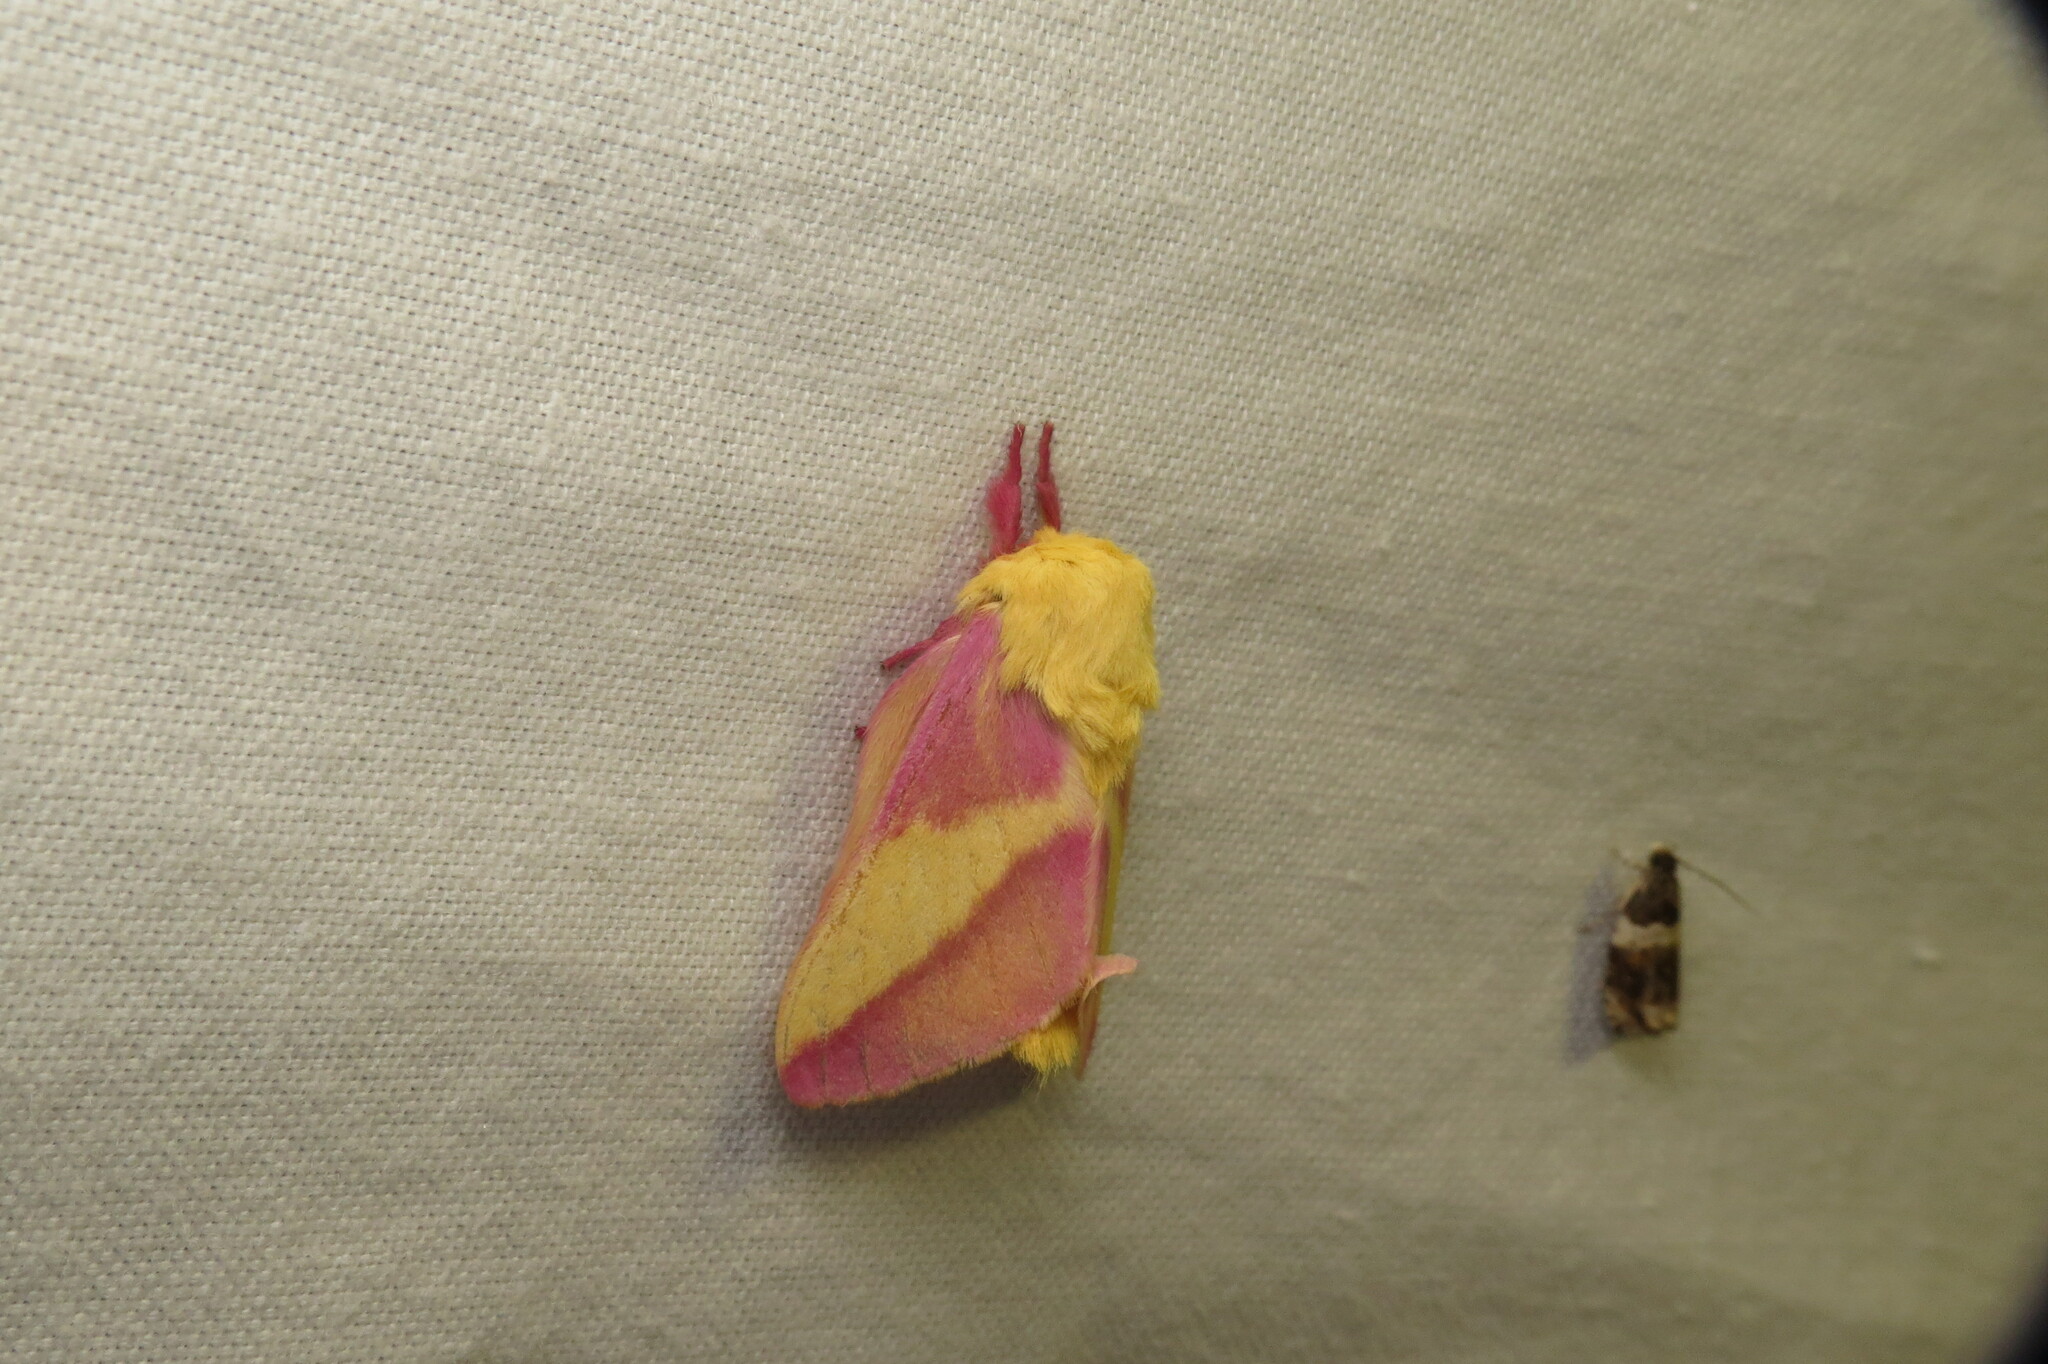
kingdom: Animalia
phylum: Arthropoda
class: Insecta
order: Lepidoptera
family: Saturniidae
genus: Dryocampa
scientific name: Dryocampa rubicunda
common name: Rosy maple moth
